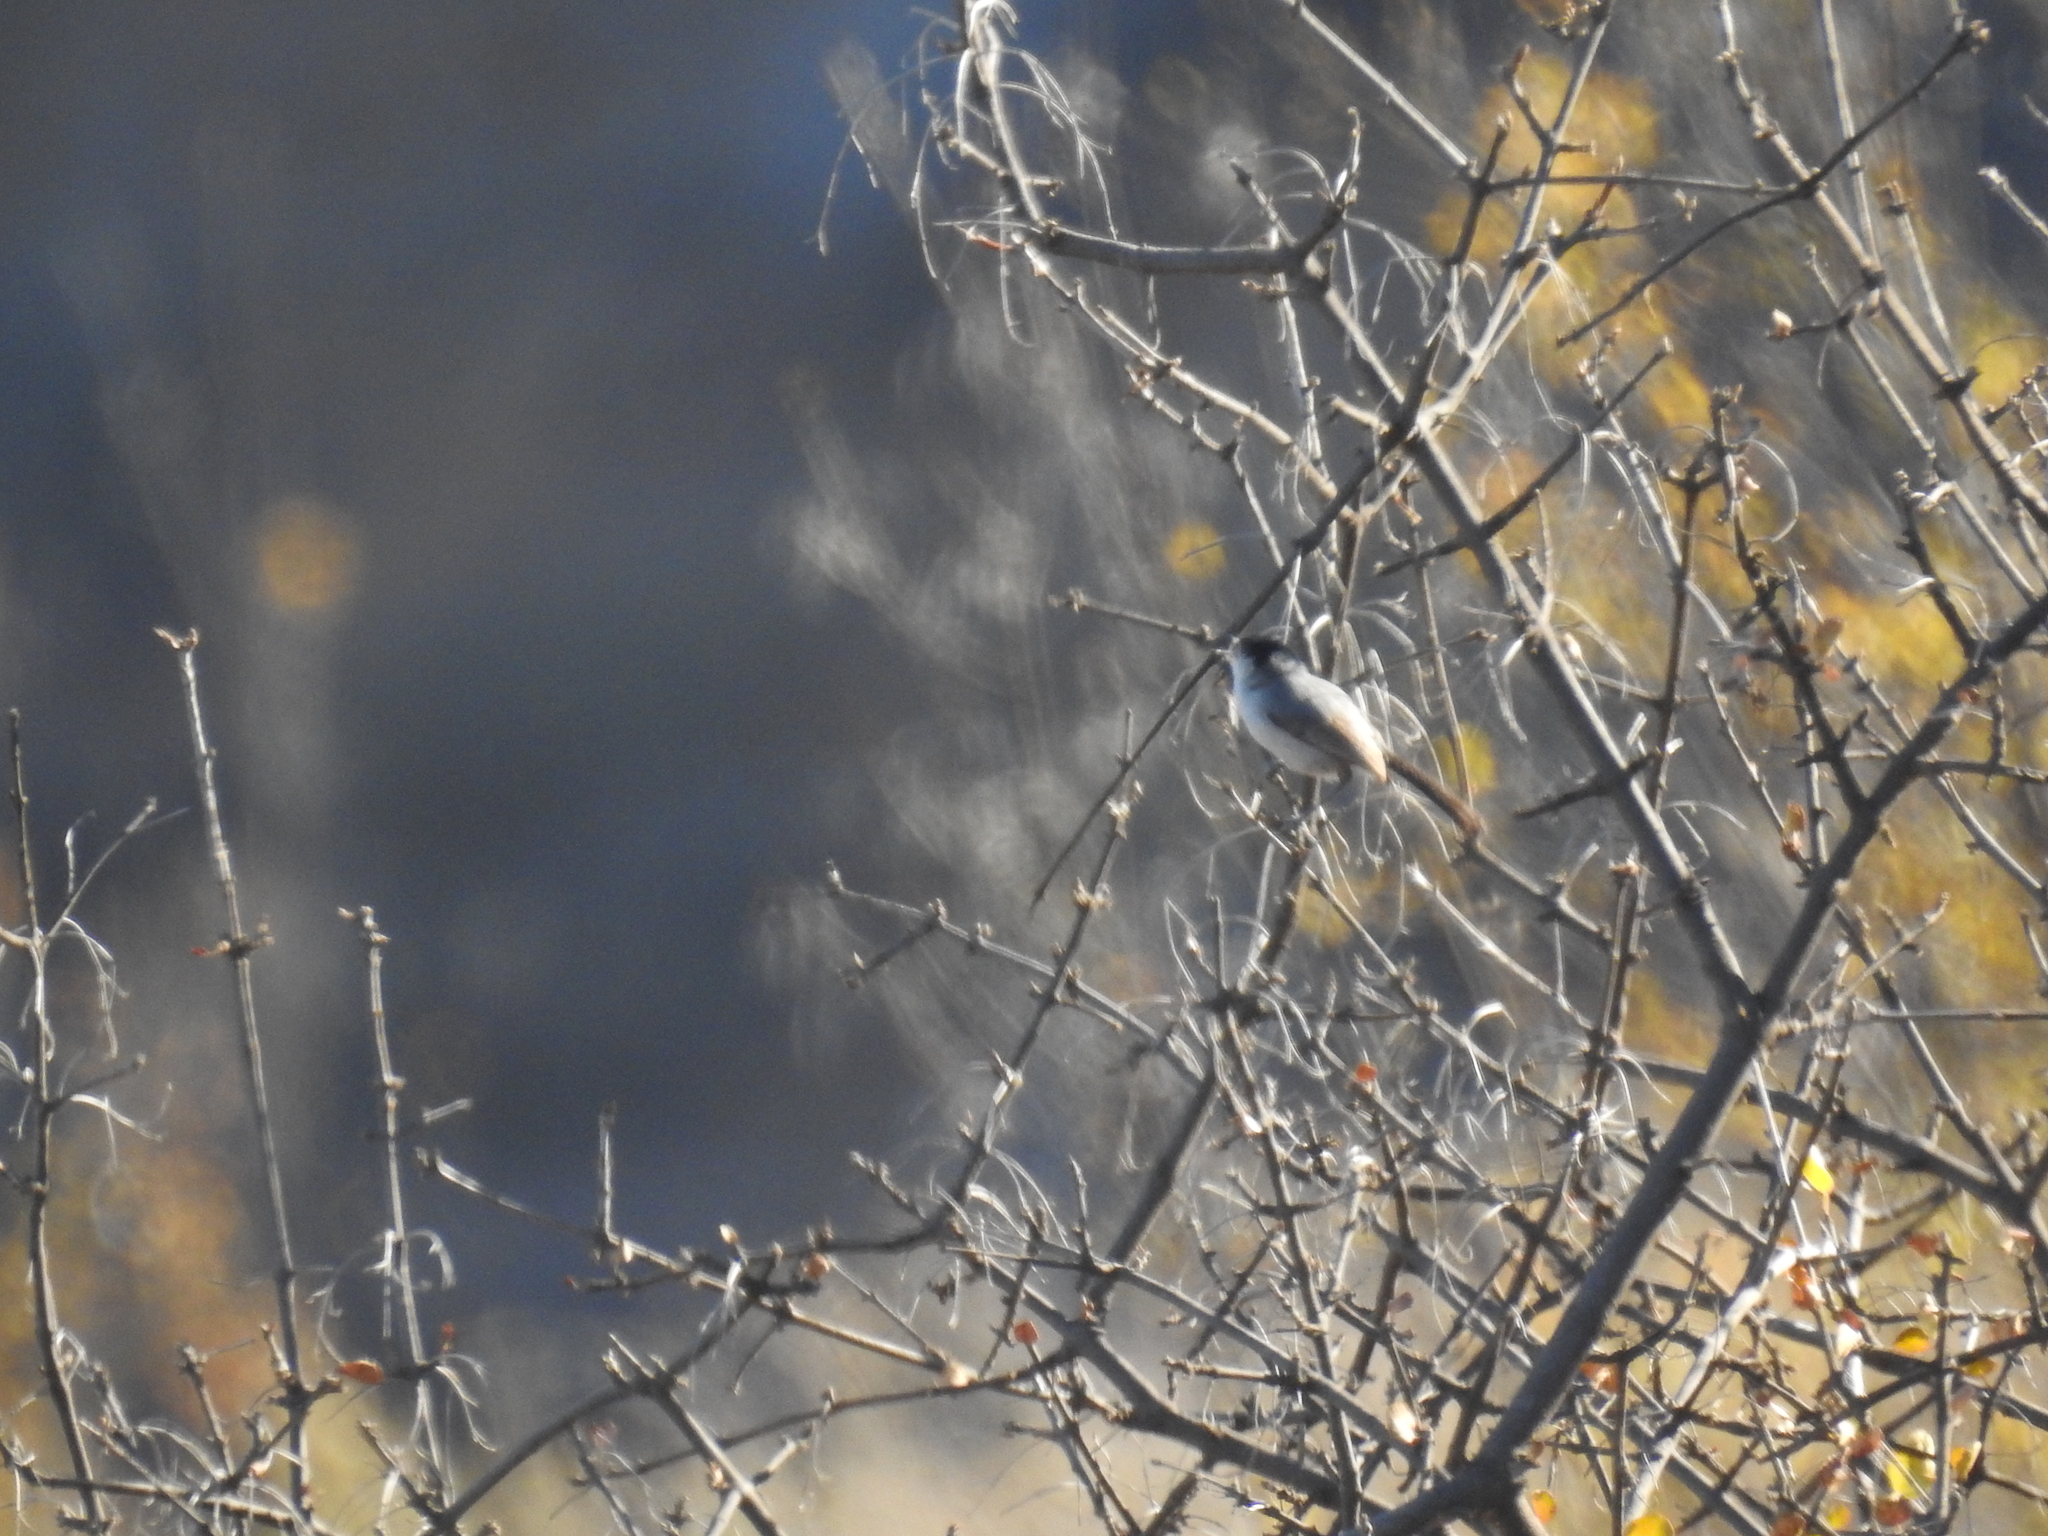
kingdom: Animalia
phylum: Chordata
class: Aves
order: Passeriformes
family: Polioptilidae
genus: Polioptila
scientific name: Polioptila californica
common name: California gnatcatcher
